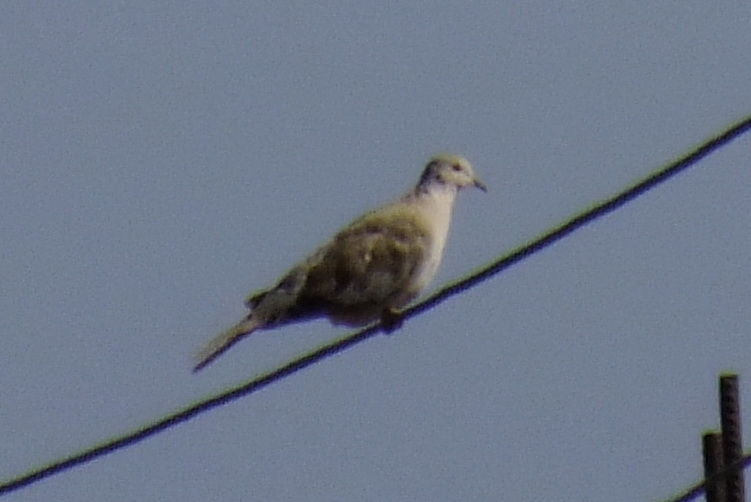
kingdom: Animalia
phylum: Chordata
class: Aves
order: Columbiformes
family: Columbidae
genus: Streptopelia
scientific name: Streptopelia decaocto
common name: Eurasian collared dove
